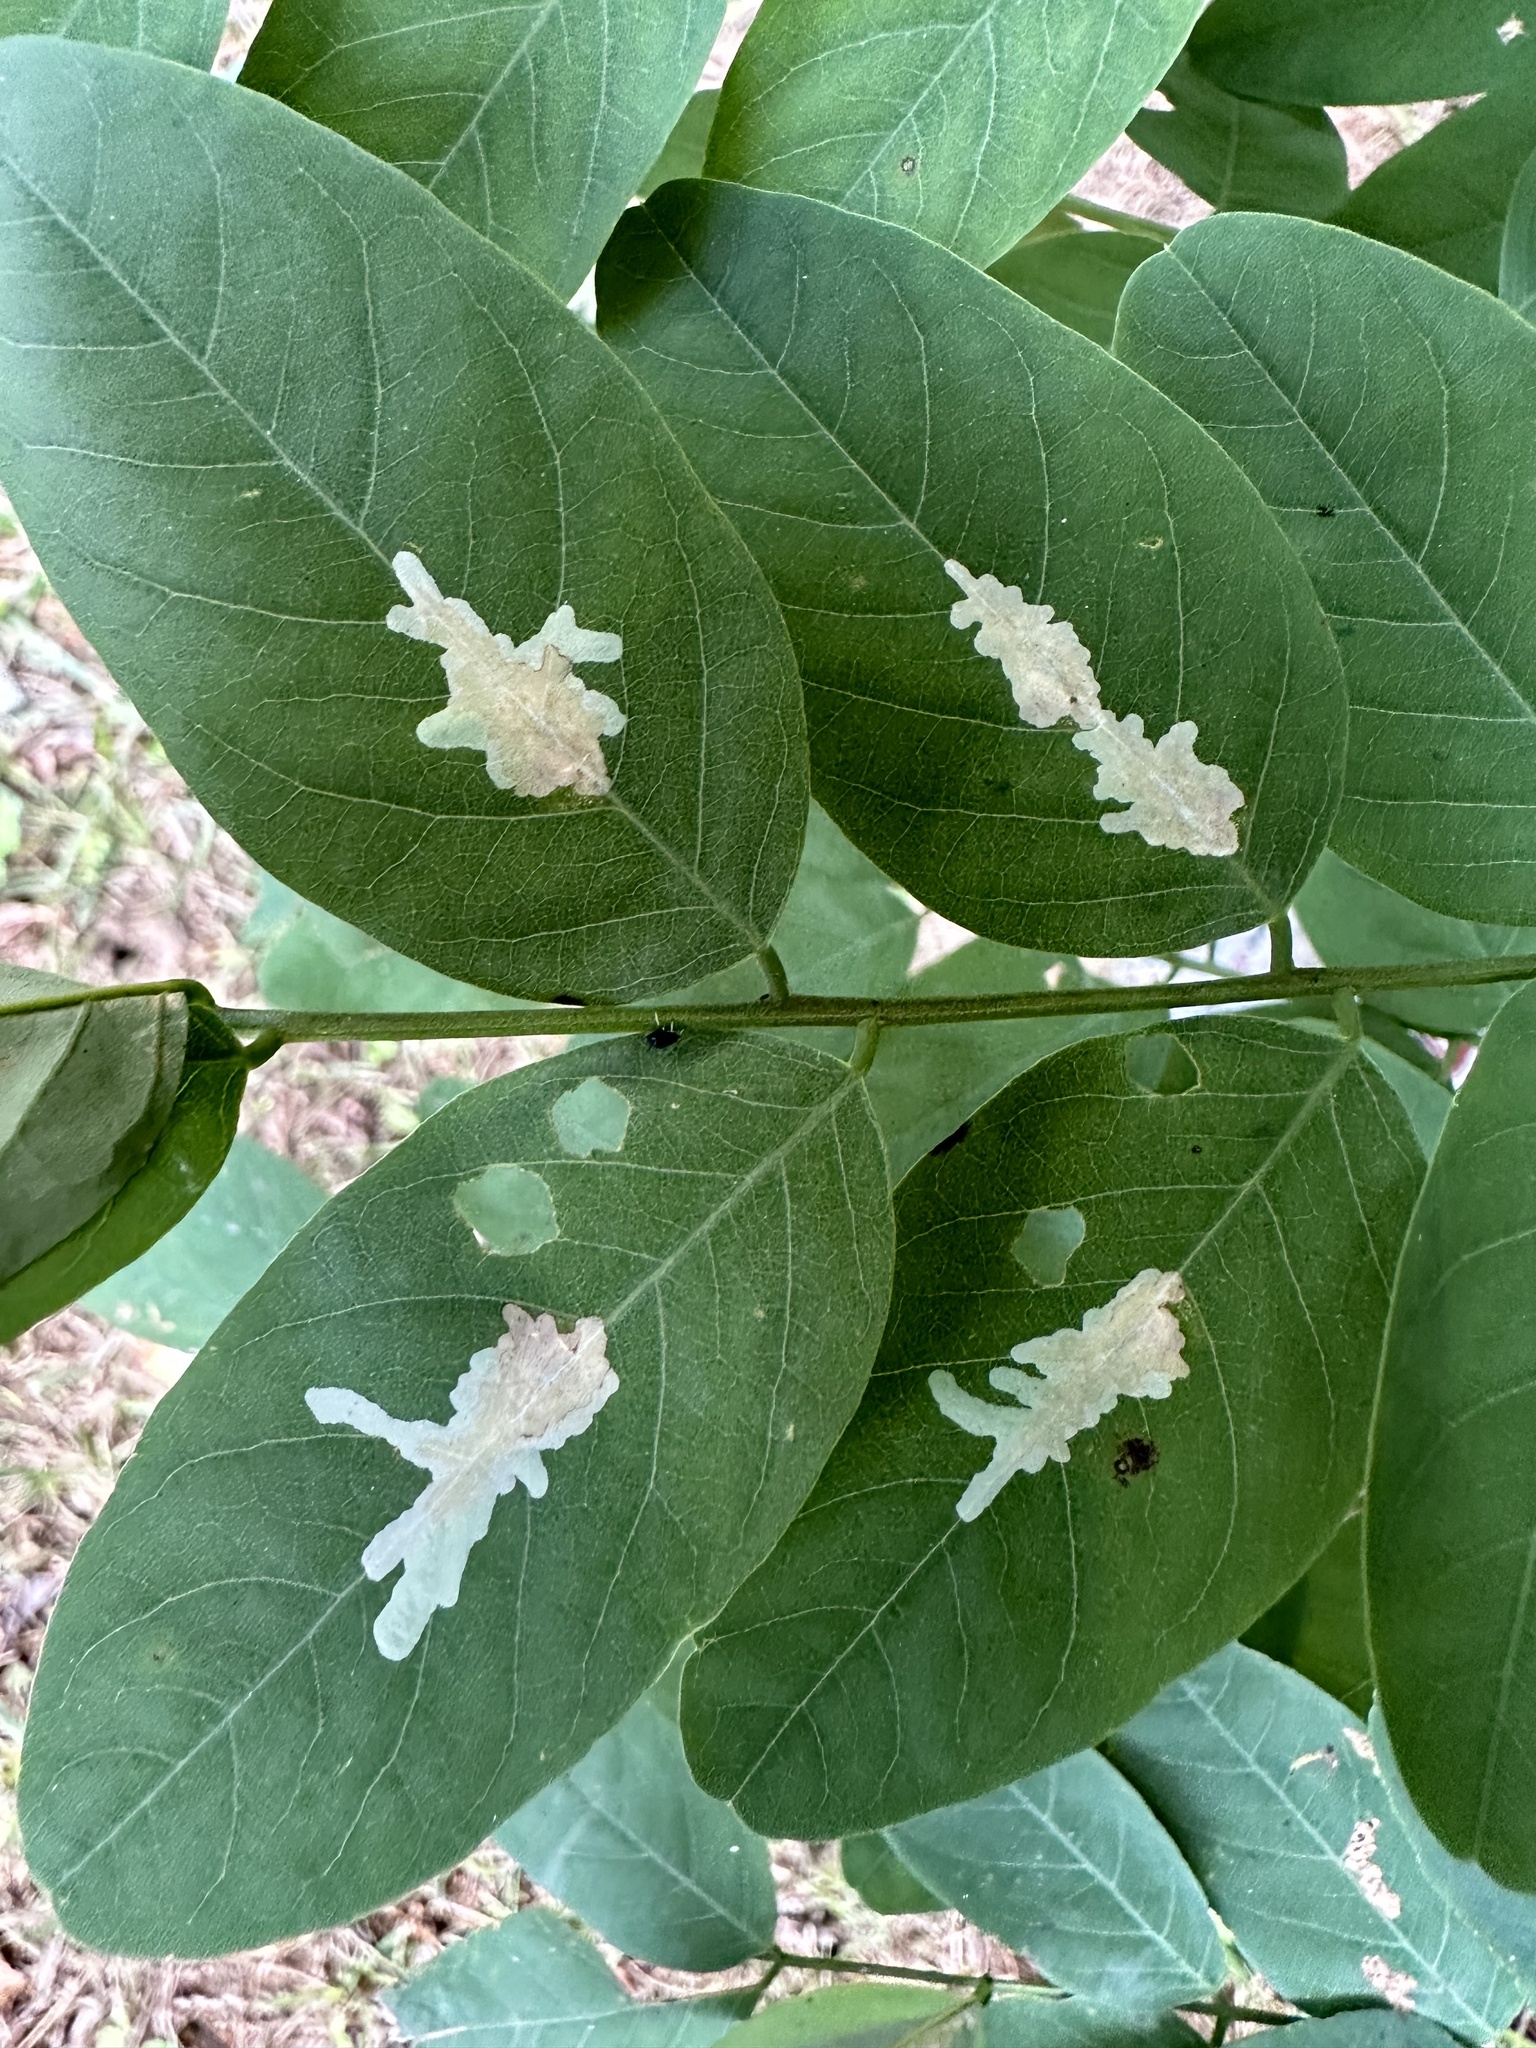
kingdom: Animalia
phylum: Arthropoda
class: Insecta
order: Lepidoptera
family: Gracillariidae
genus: Parectopa
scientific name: Parectopa robiniella
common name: Locust digitate leafminer
